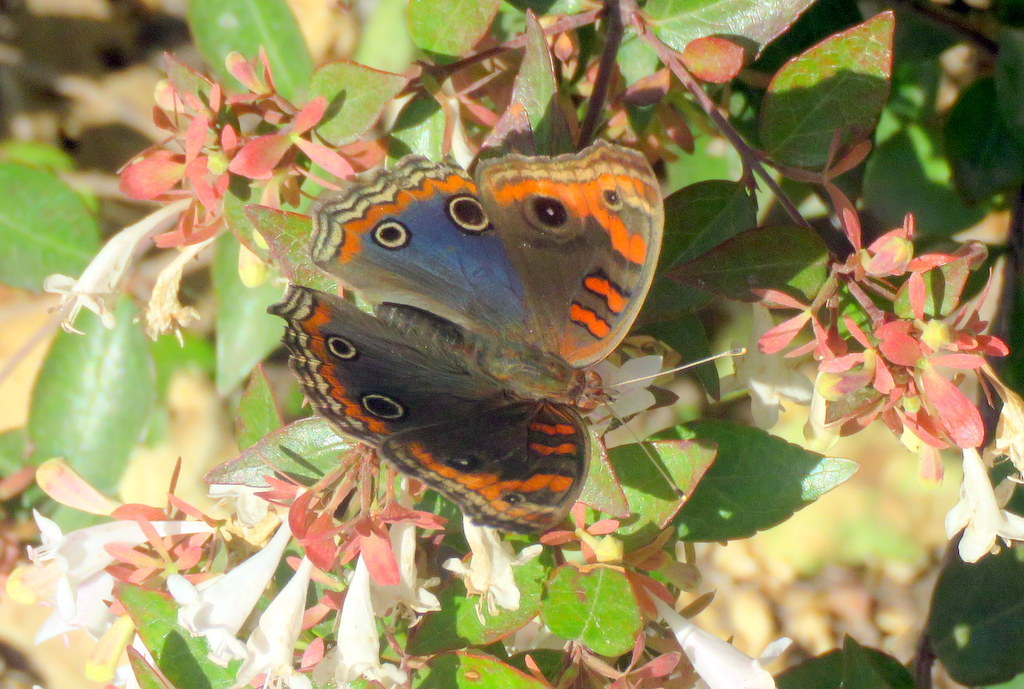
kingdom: Animalia
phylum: Arthropoda
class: Insecta
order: Lepidoptera
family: Nymphalidae
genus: Junonia
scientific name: Junonia lavinia
